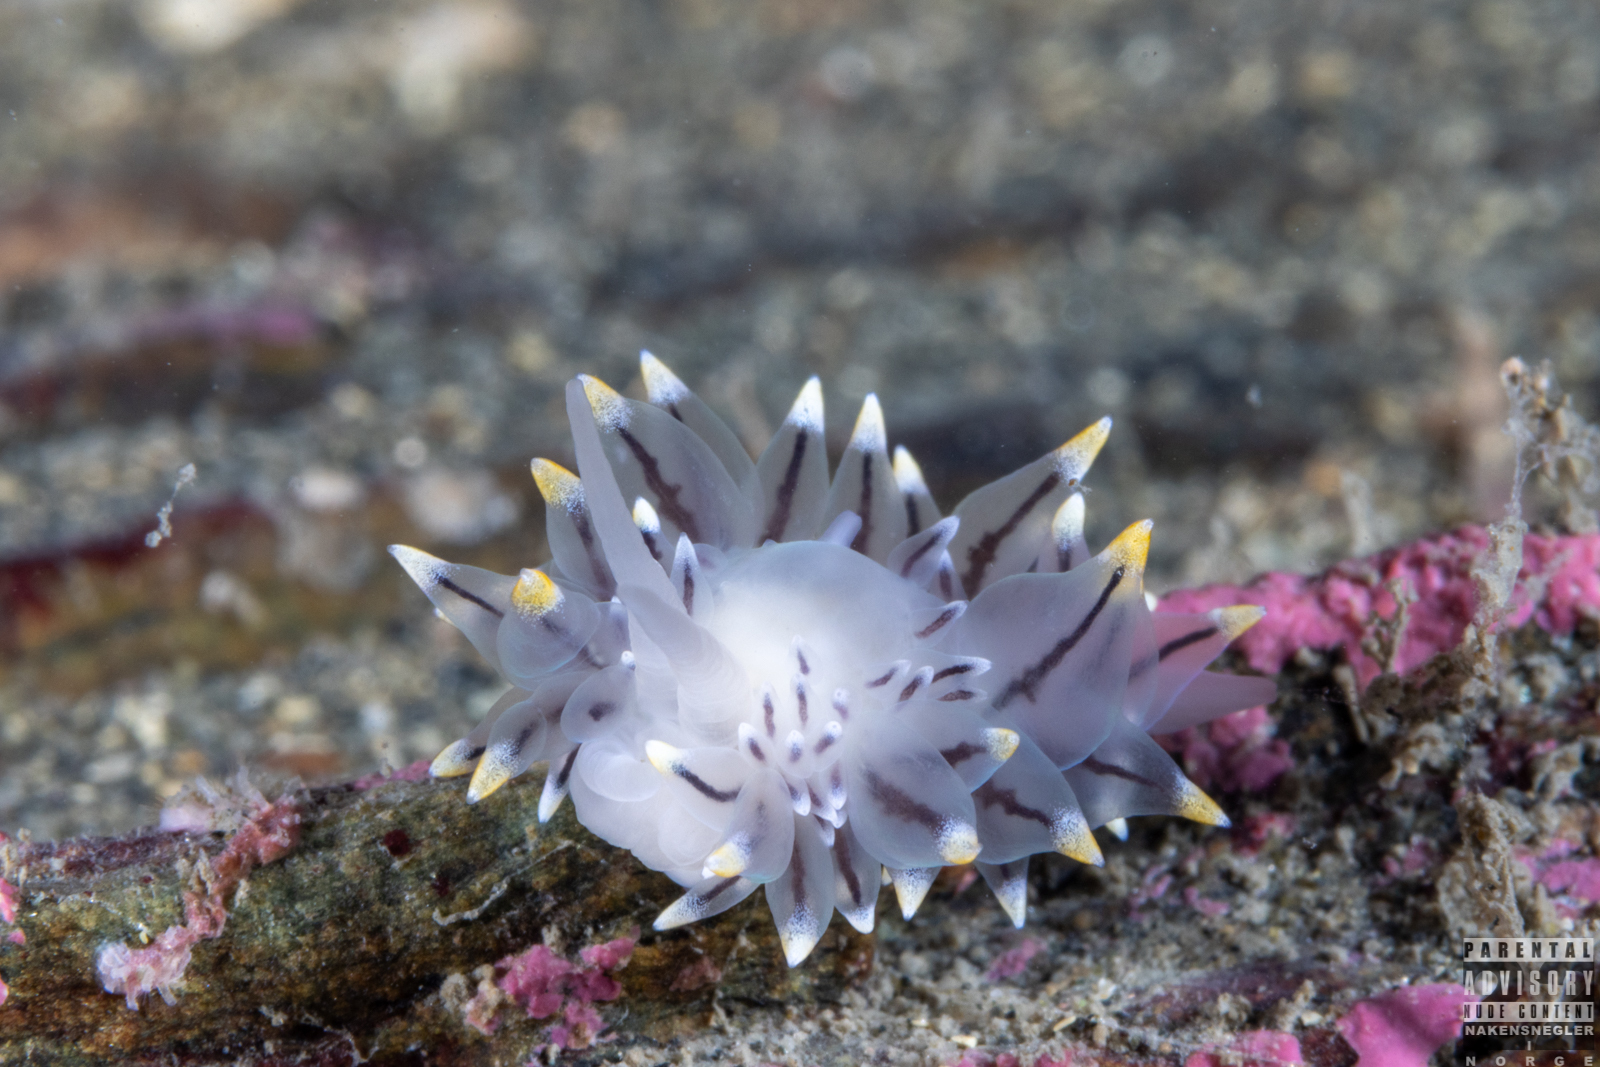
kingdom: Animalia
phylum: Mollusca
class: Gastropoda
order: Nudibranchia
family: Eubranchidae
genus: Eubranchus
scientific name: Eubranchus tricolor
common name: Painted balloon aeolis
